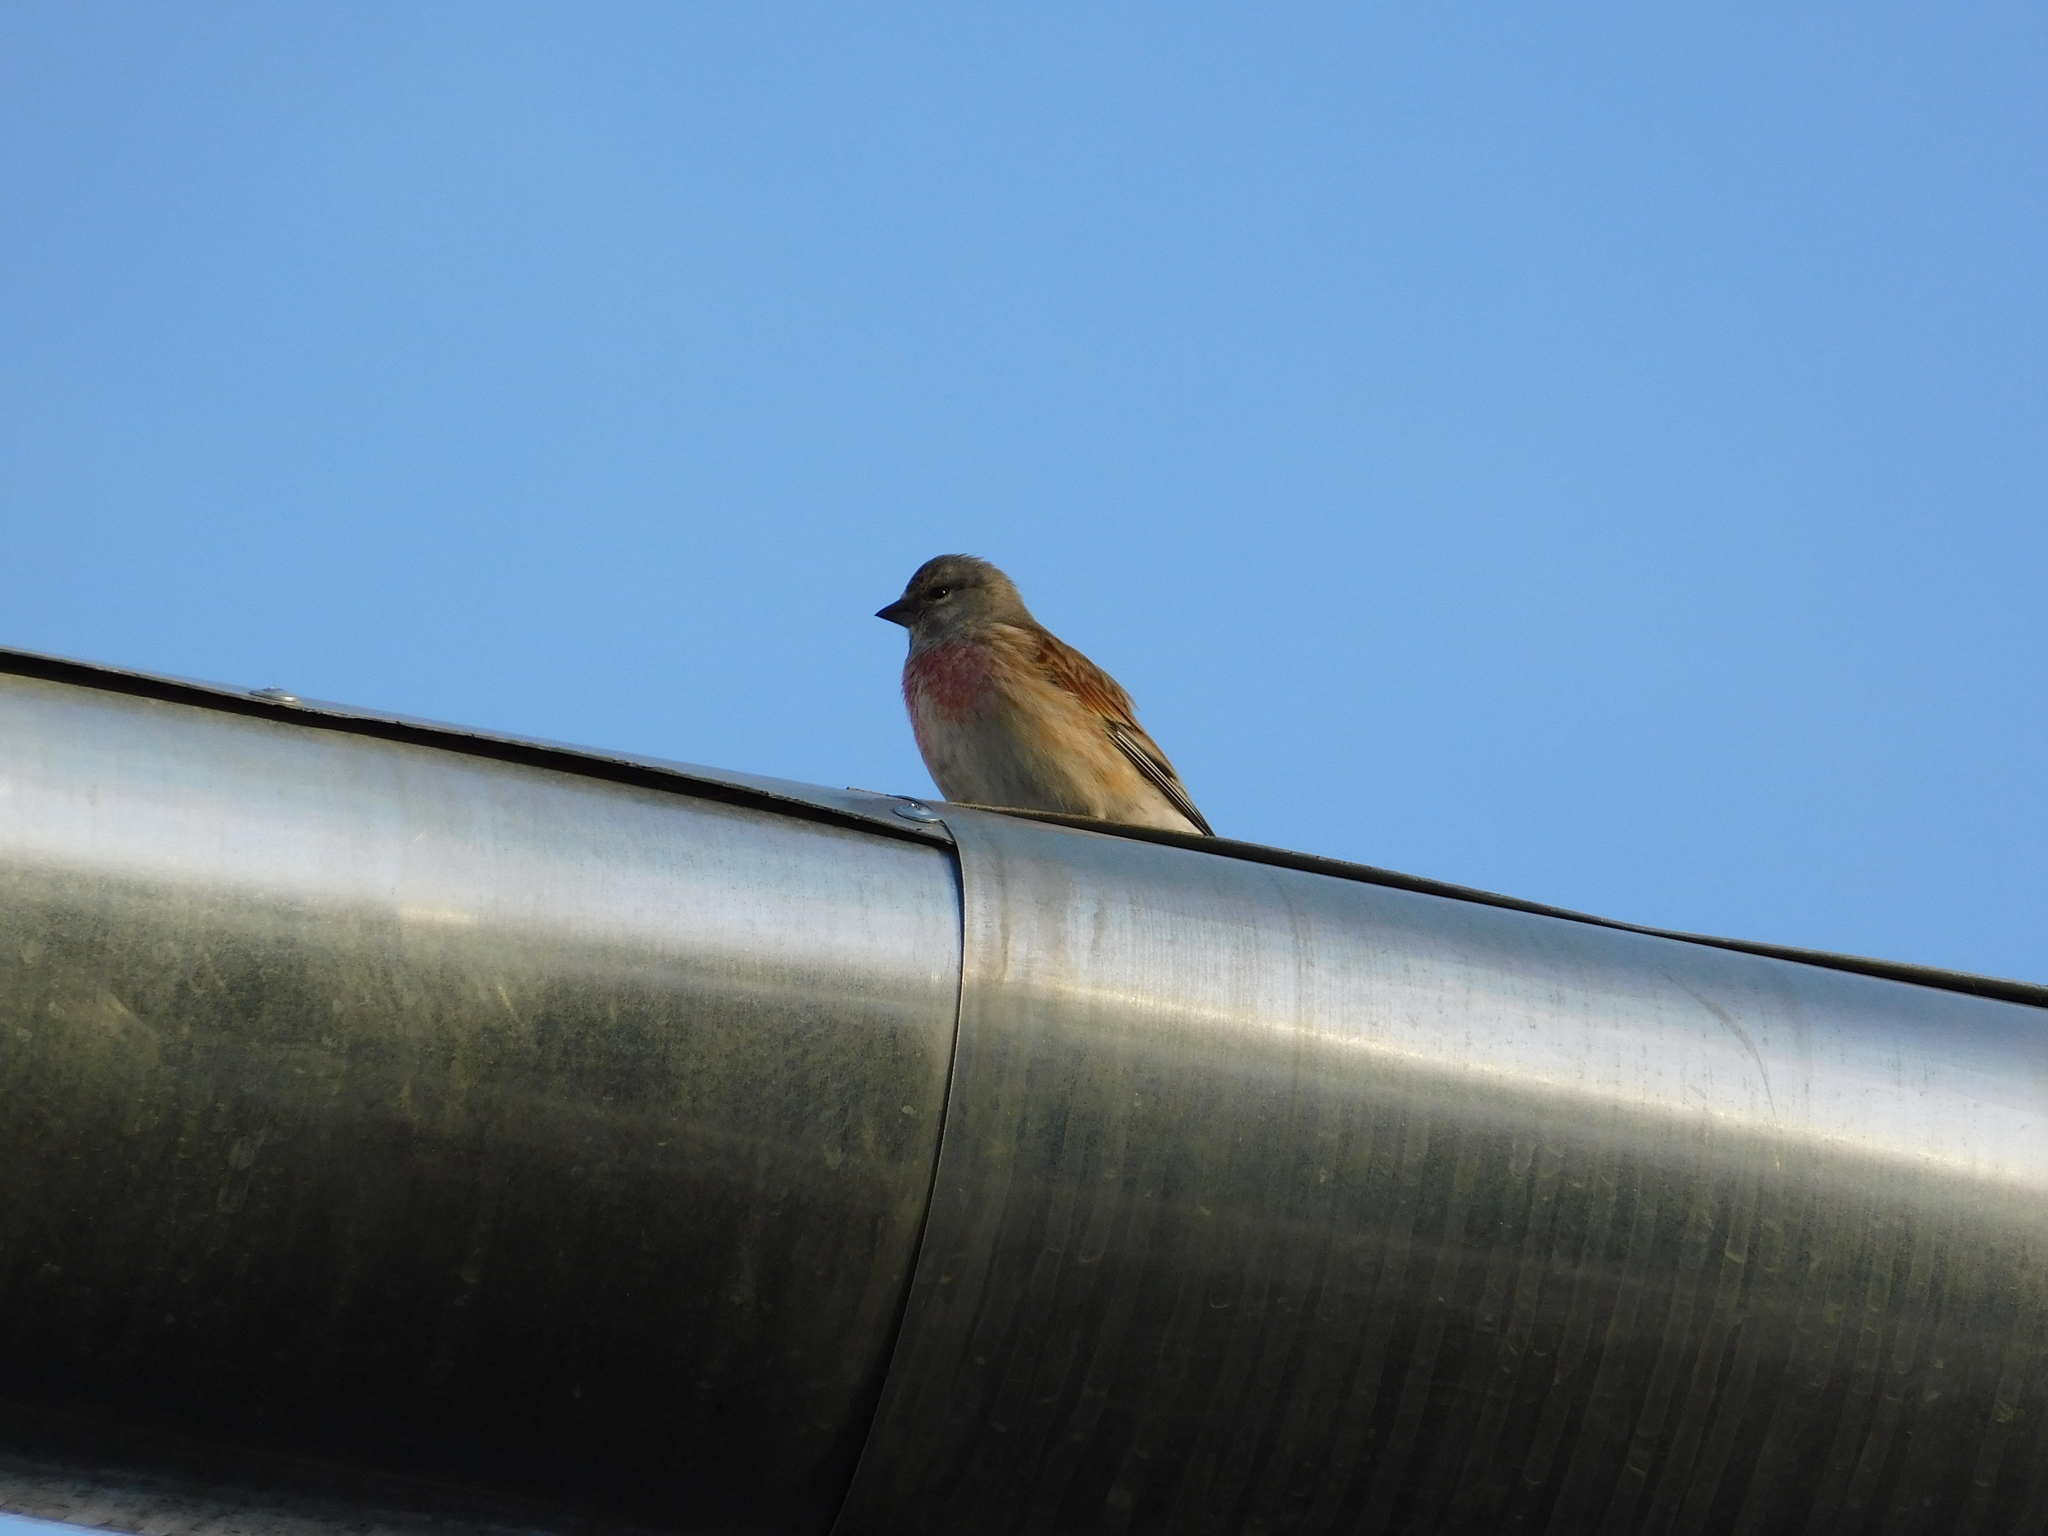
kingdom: Animalia
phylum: Chordata
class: Aves
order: Passeriformes
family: Fringillidae
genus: Linaria
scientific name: Linaria cannabina
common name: Common linnet
